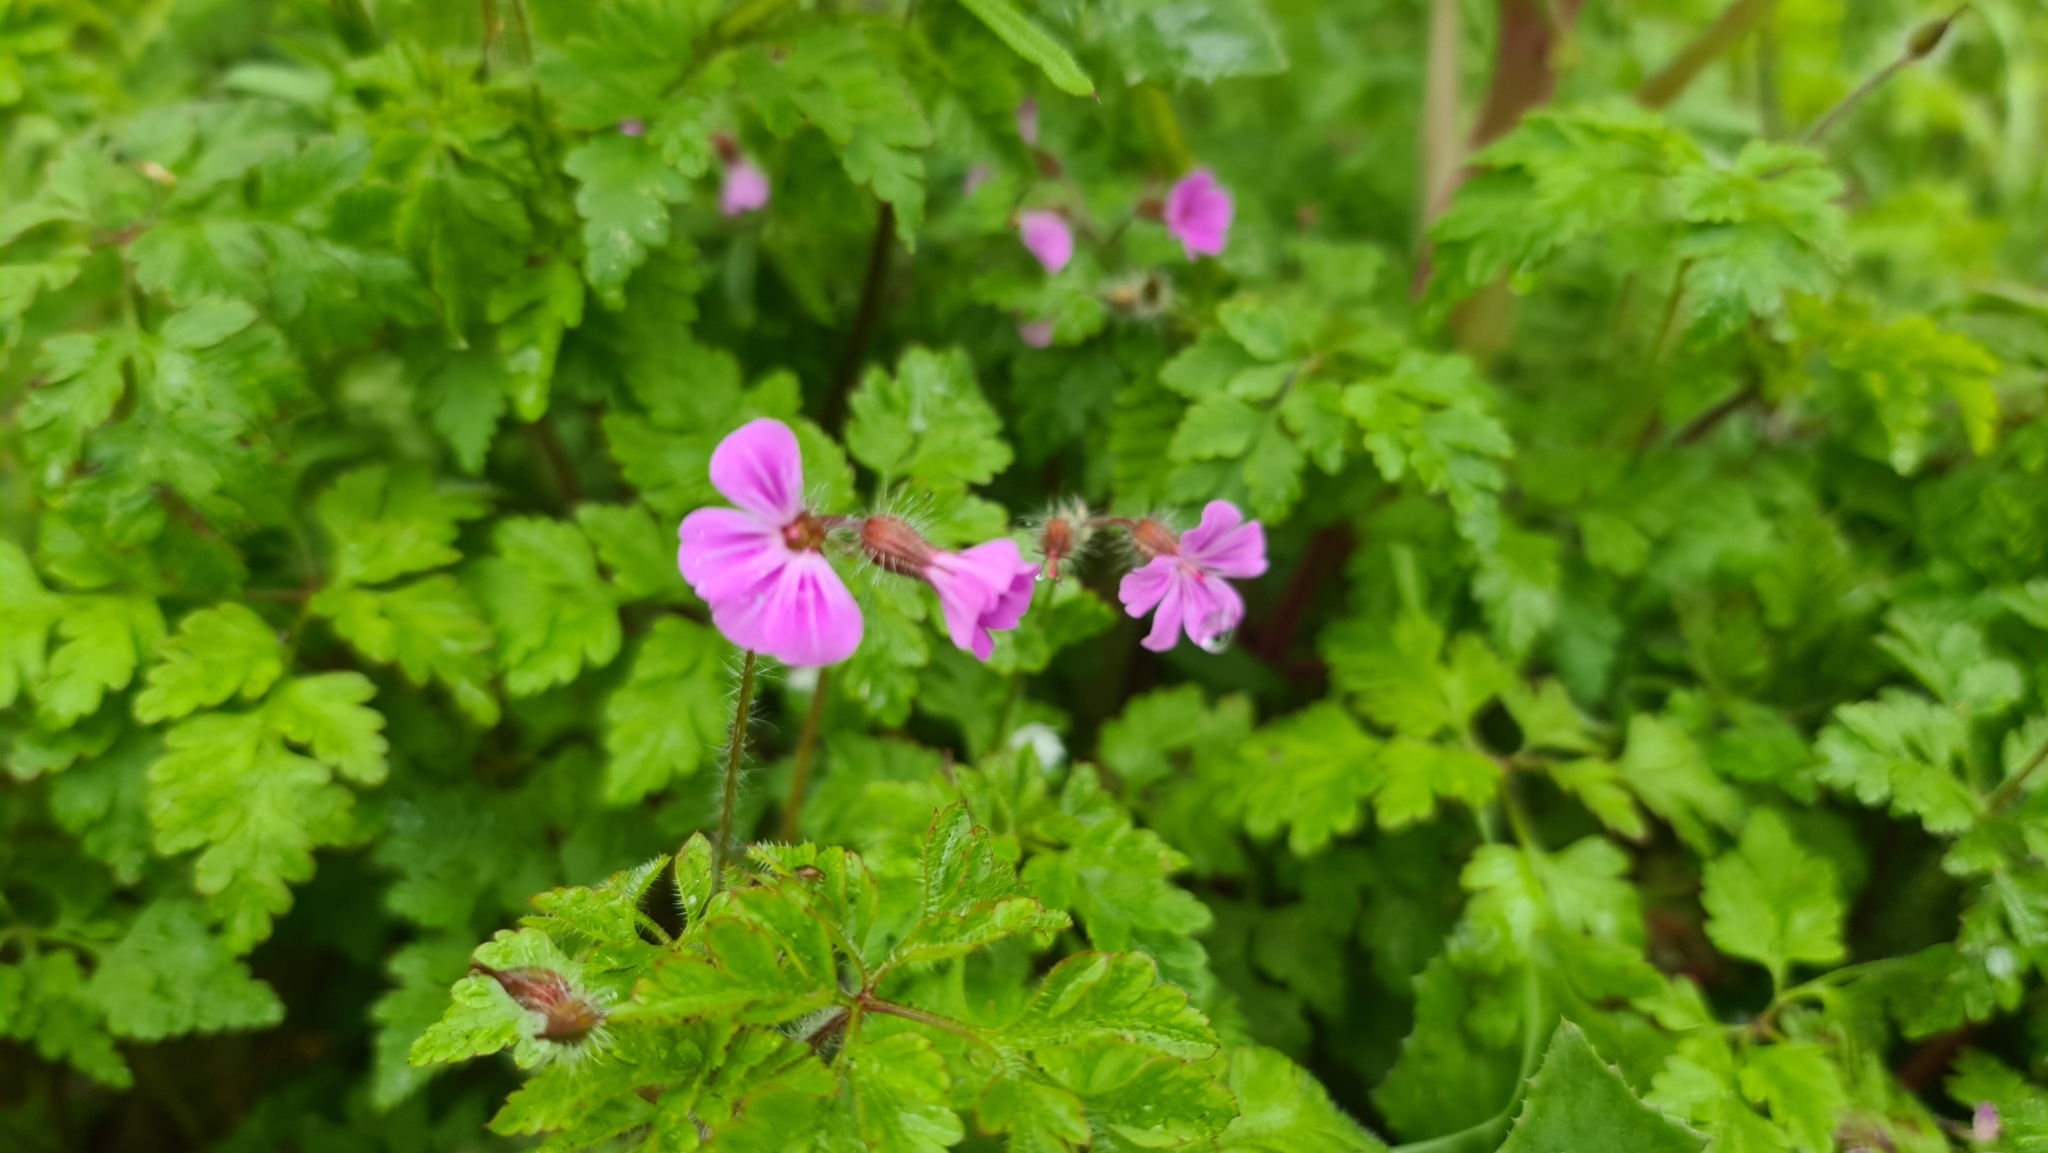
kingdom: Plantae
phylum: Tracheophyta
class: Magnoliopsida
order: Geraniales
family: Geraniaceae
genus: Geranium
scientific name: Geranium robertianum
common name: Herb-robert
